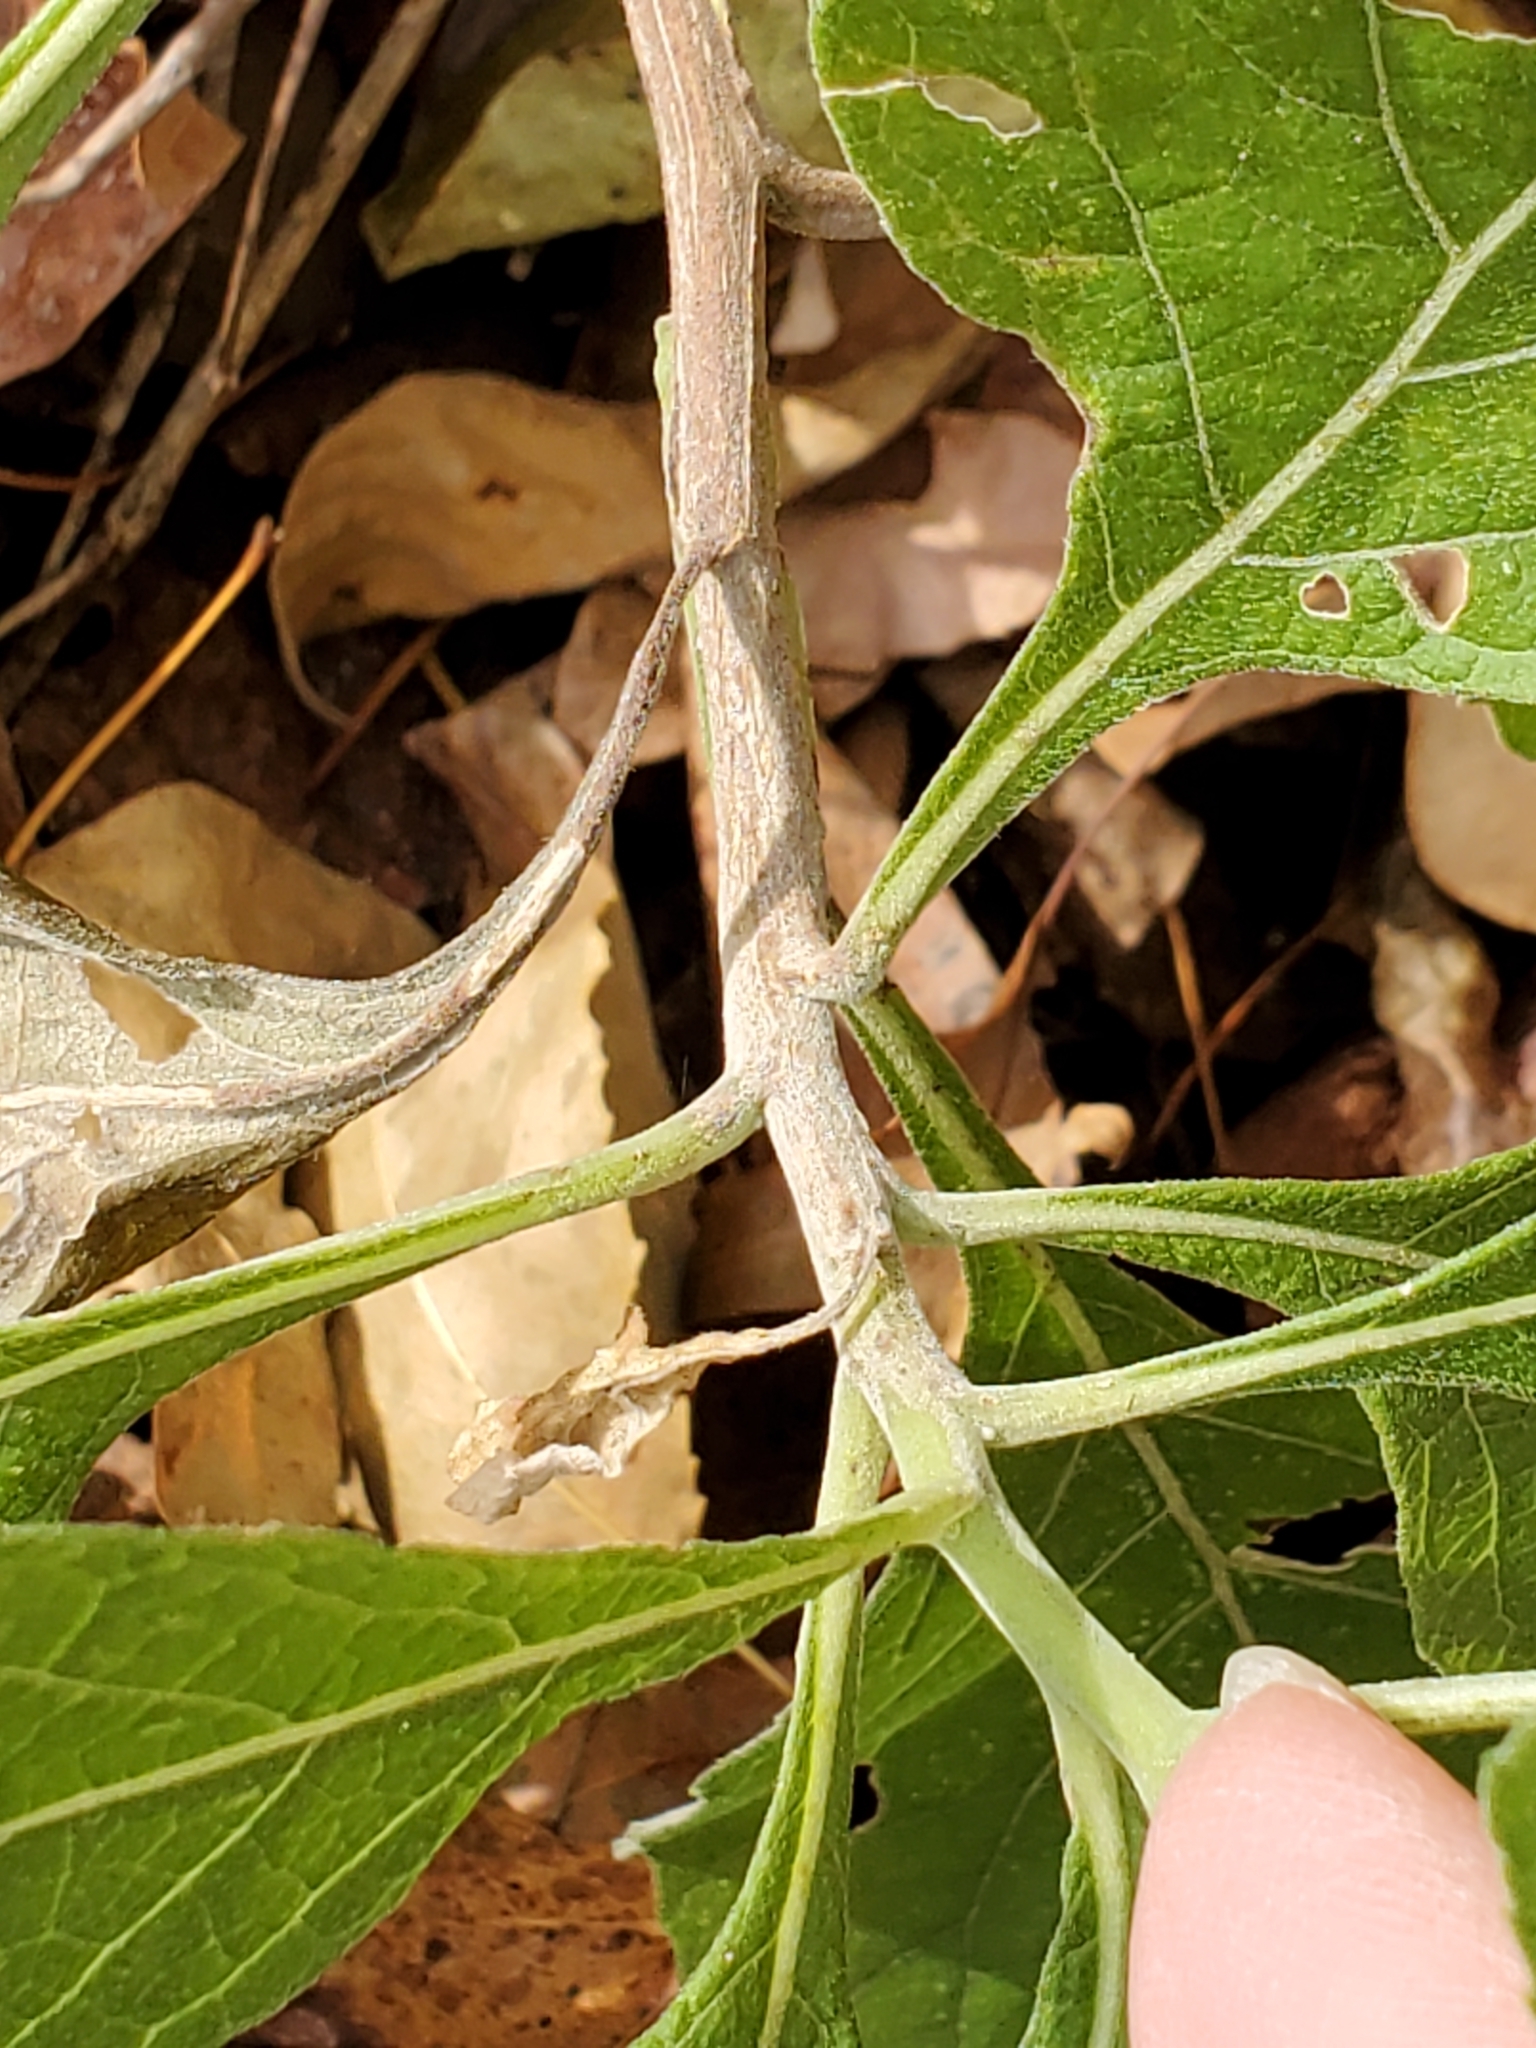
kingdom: Plantae
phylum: Tracheophyta
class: Magnoliopsida
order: Asterales
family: Asteraceae
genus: Verbesina
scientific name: Verbesina virginica
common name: Frostweed
